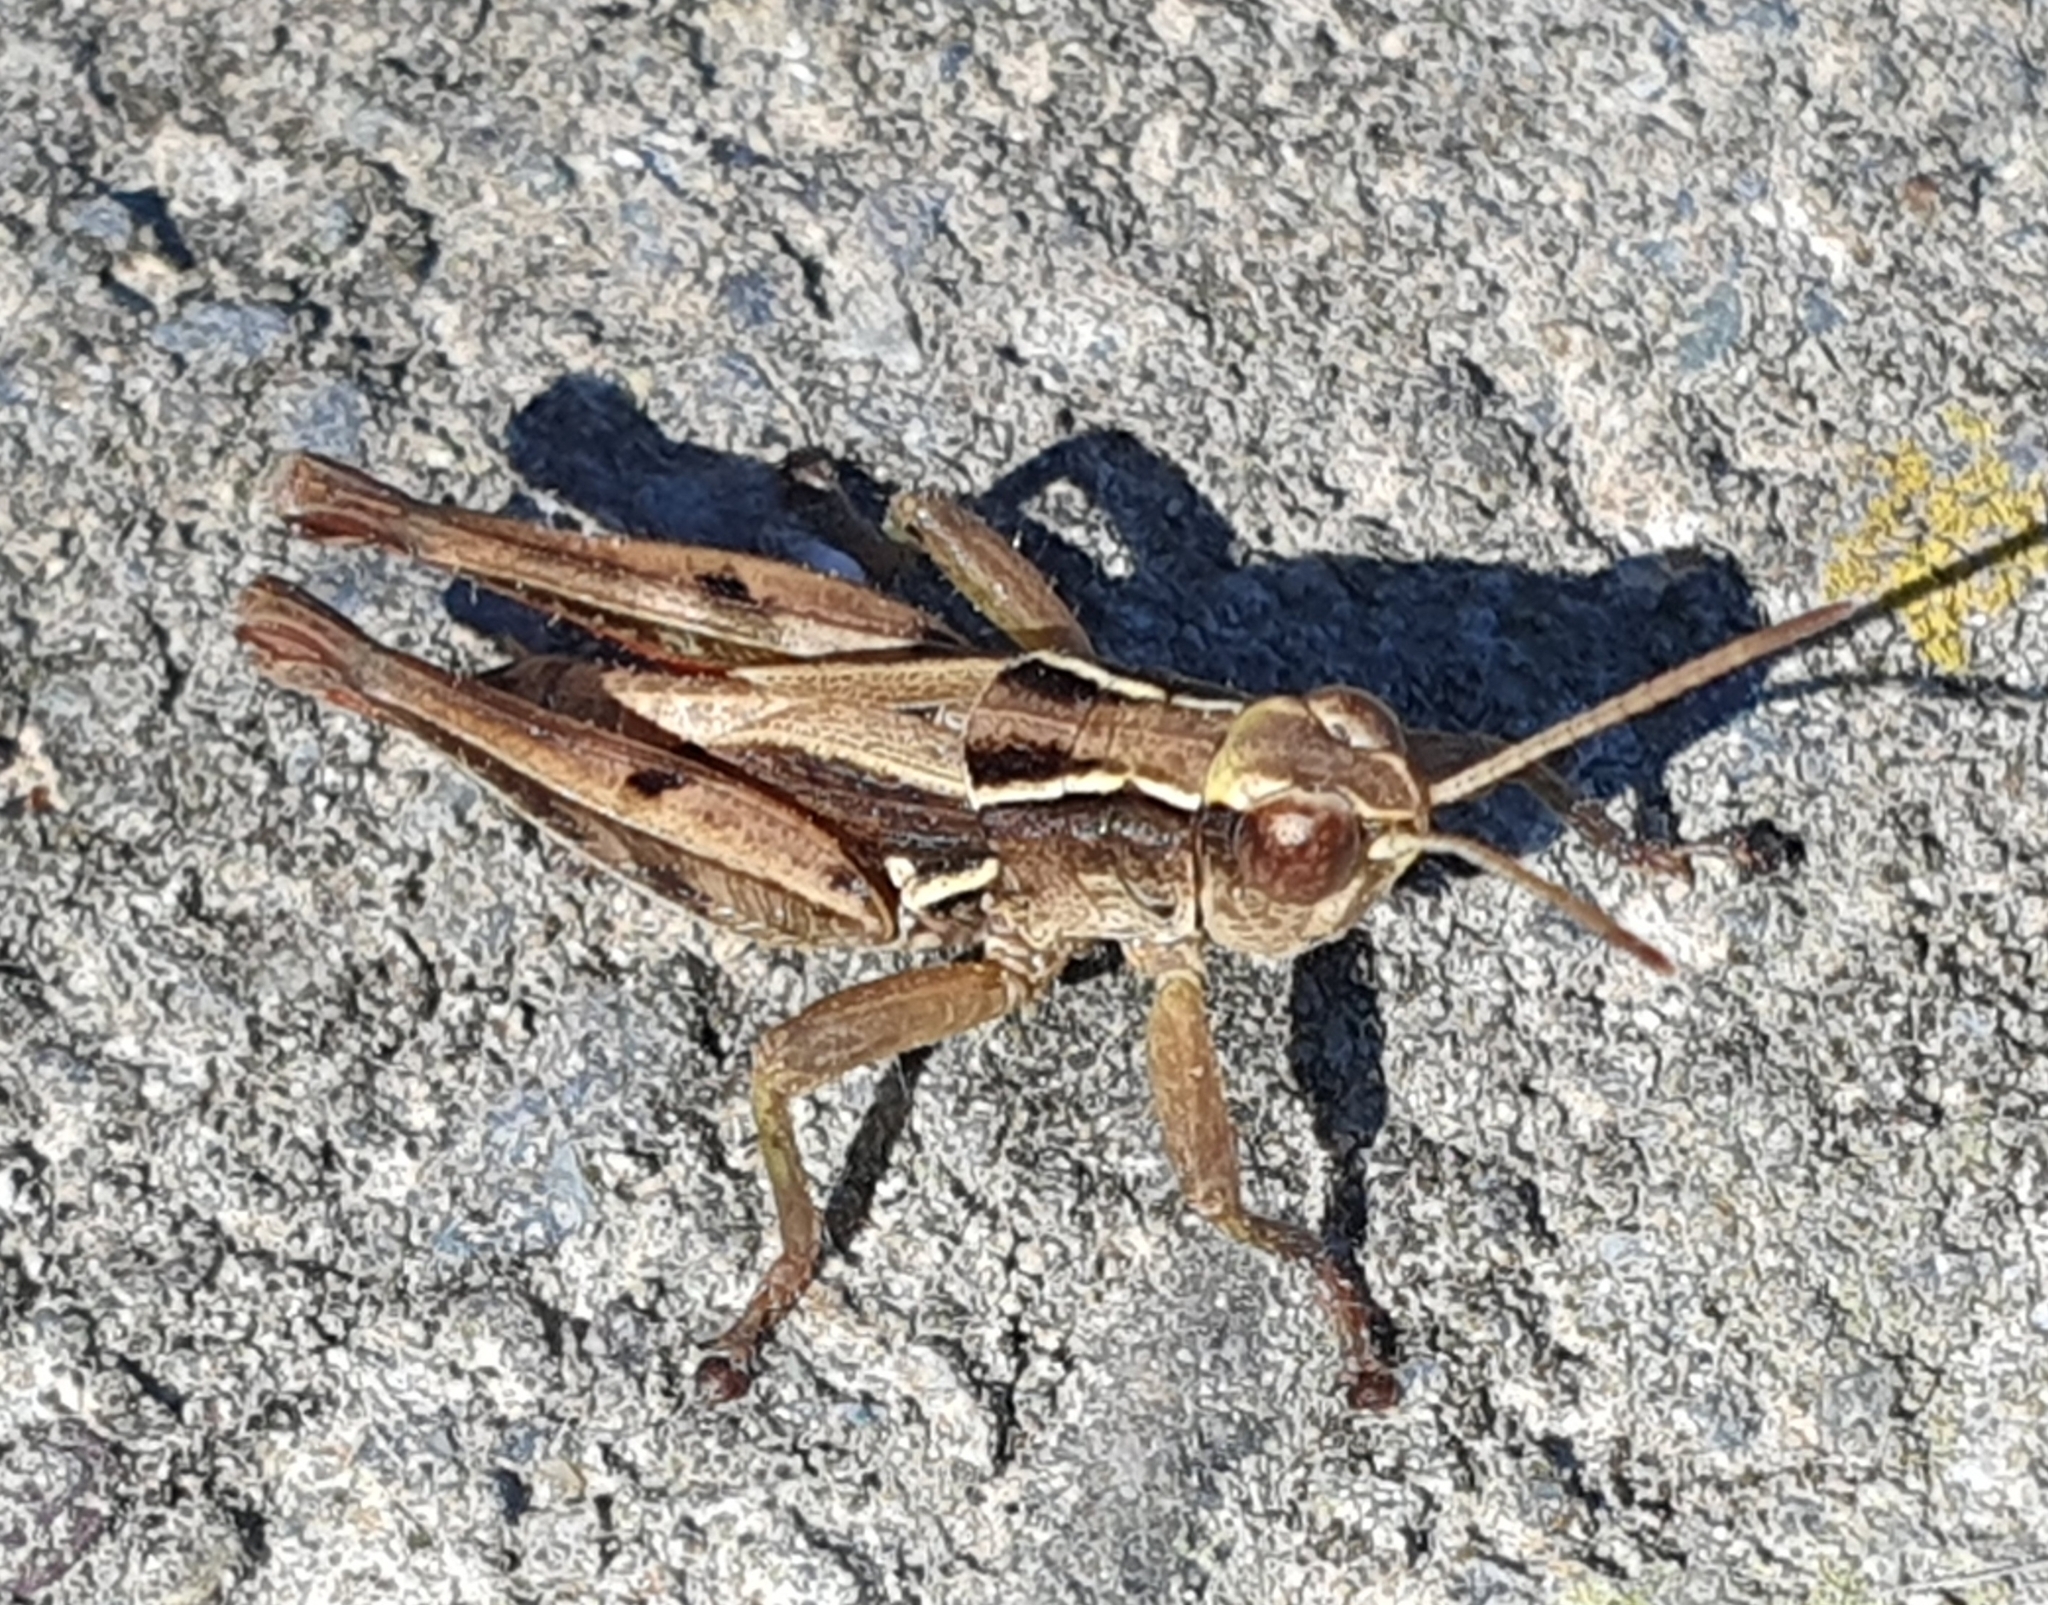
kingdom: Animalia
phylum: Arthropoda
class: Insecta
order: Orthoptera
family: Acrididae
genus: Phaulacridium
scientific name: Phaulacridium marginale
